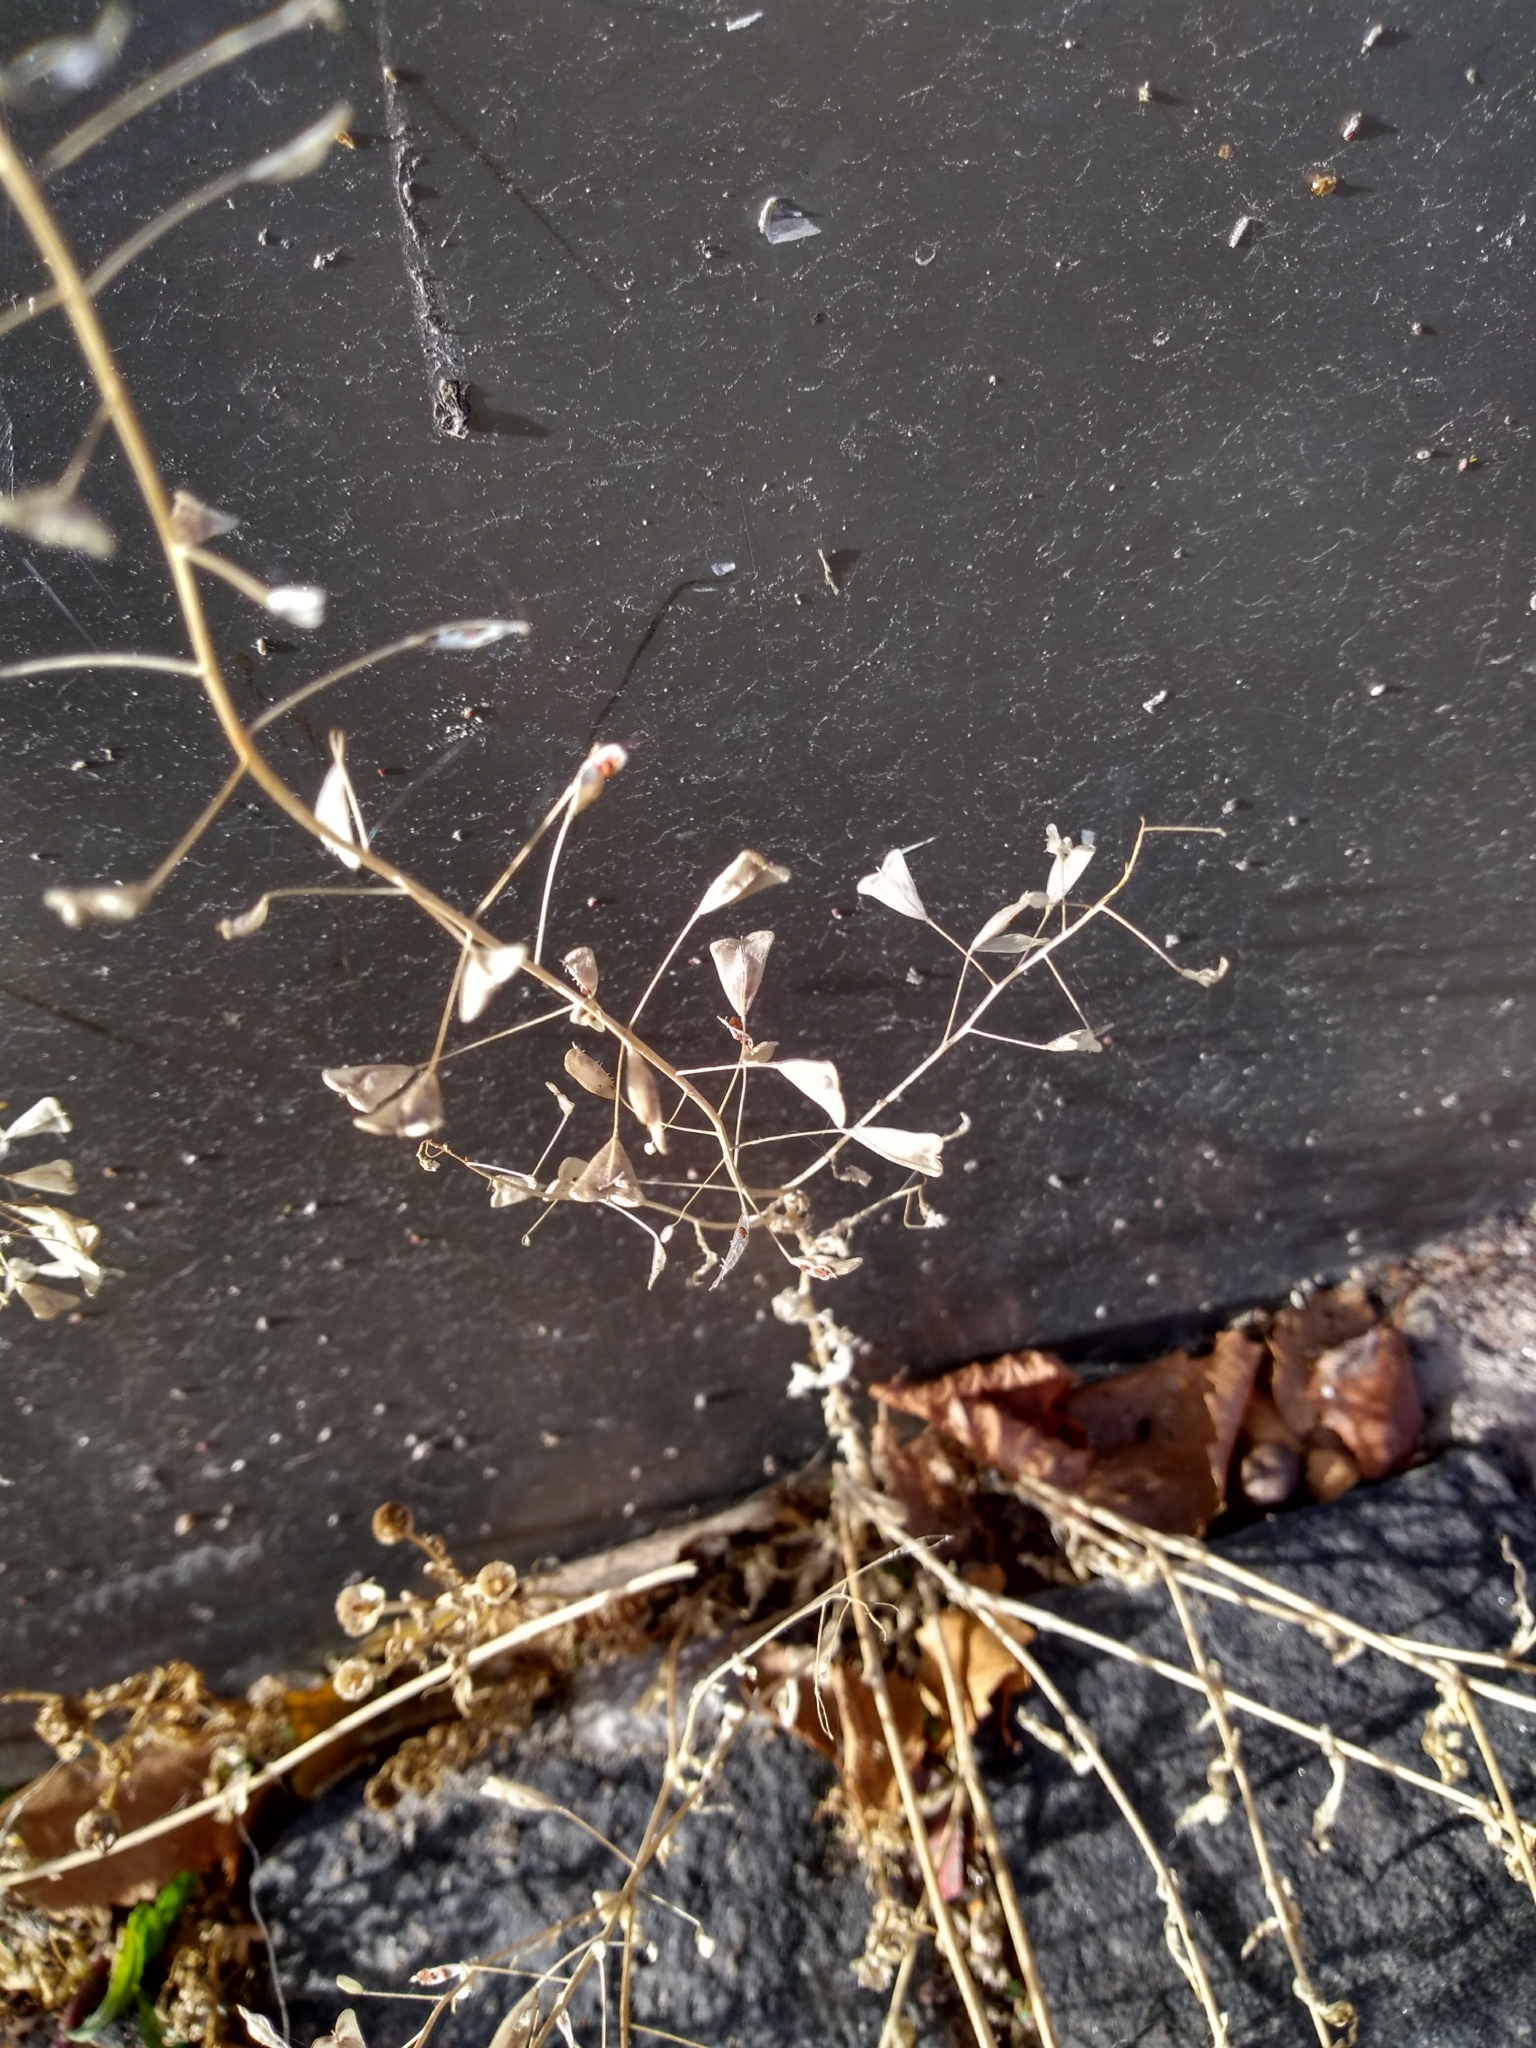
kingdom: Plantae
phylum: Tracheophyta
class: Magnoliopsida
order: Brassicales
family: Brassicaceae
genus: Capsella
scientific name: Capsella bursa-pastoris
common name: Shepherd's purse
